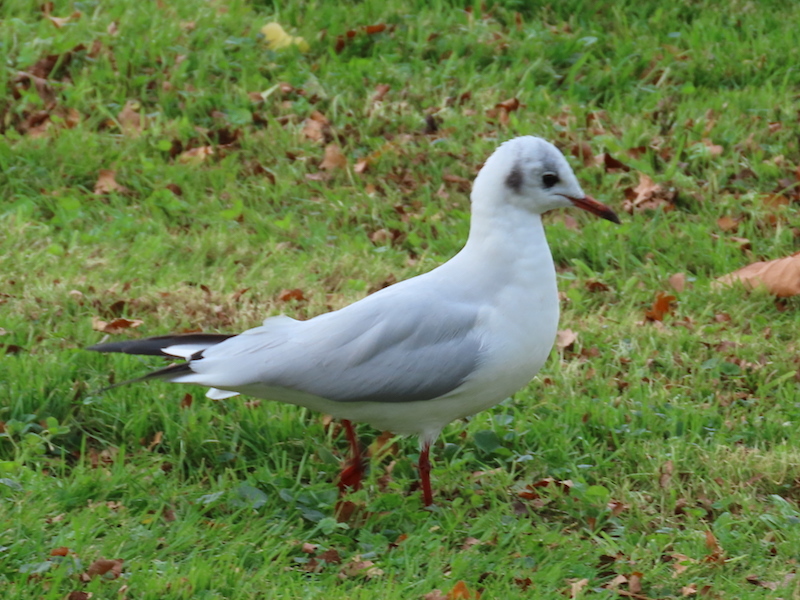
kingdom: Animalia
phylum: Chordata
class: Aves
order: Charadriiformes
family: Laridae
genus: Chroicocephalus
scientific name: Chroicocephalus ridibundus
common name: Black-headed gull
